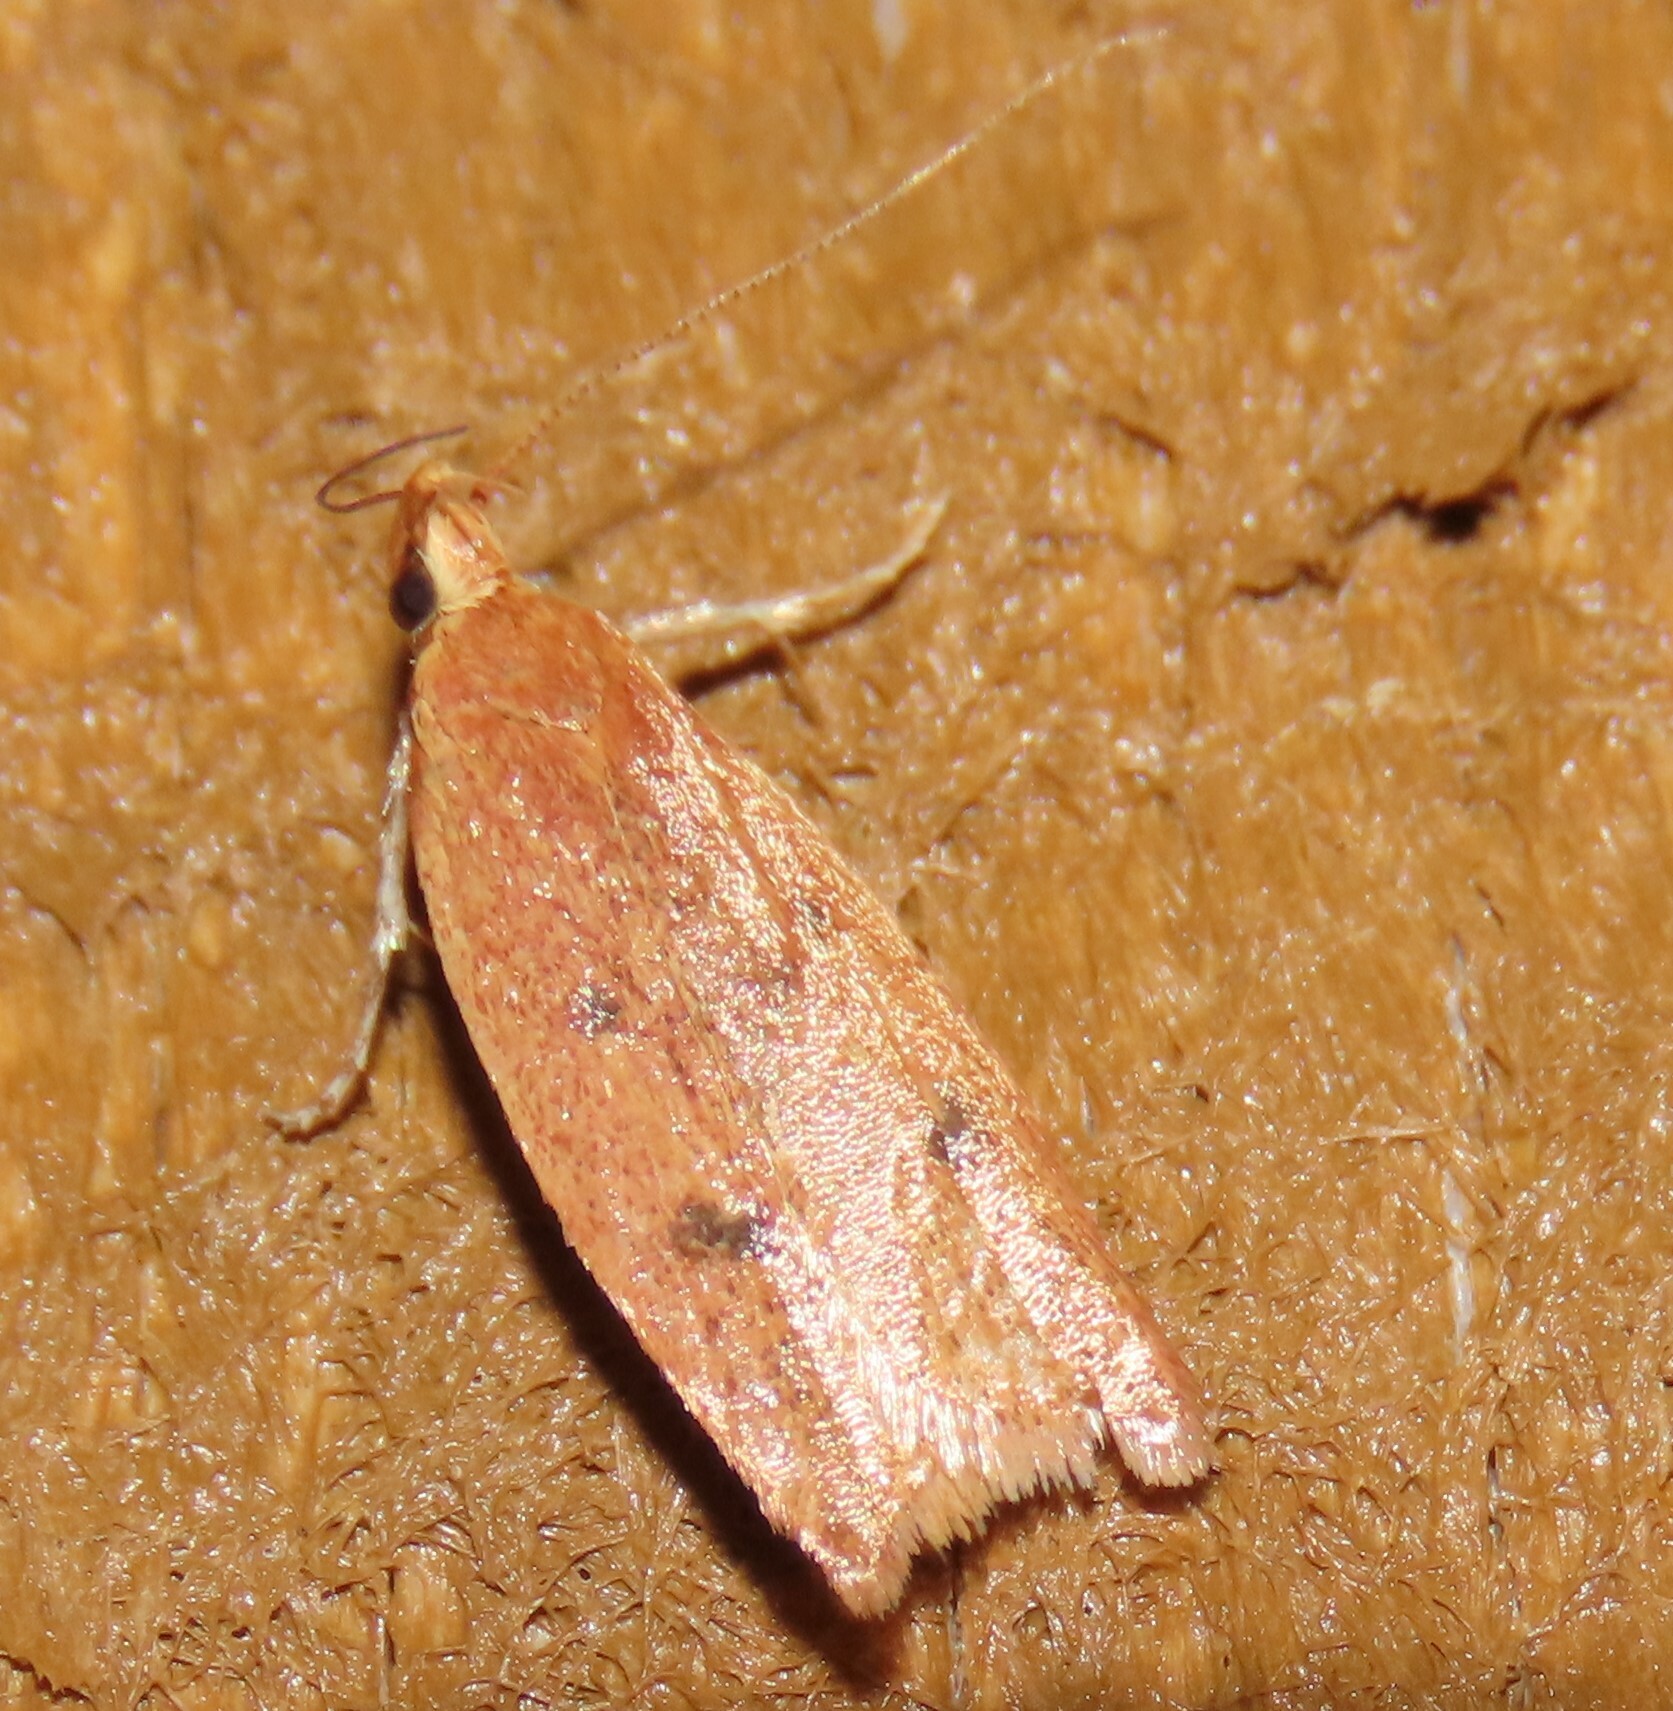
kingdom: Animalia
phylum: Arthropoda
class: Insecta
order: Lepidoptera
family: Oecophoridae
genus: Gymnobathra
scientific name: Gymnobathra sarcoxantha
